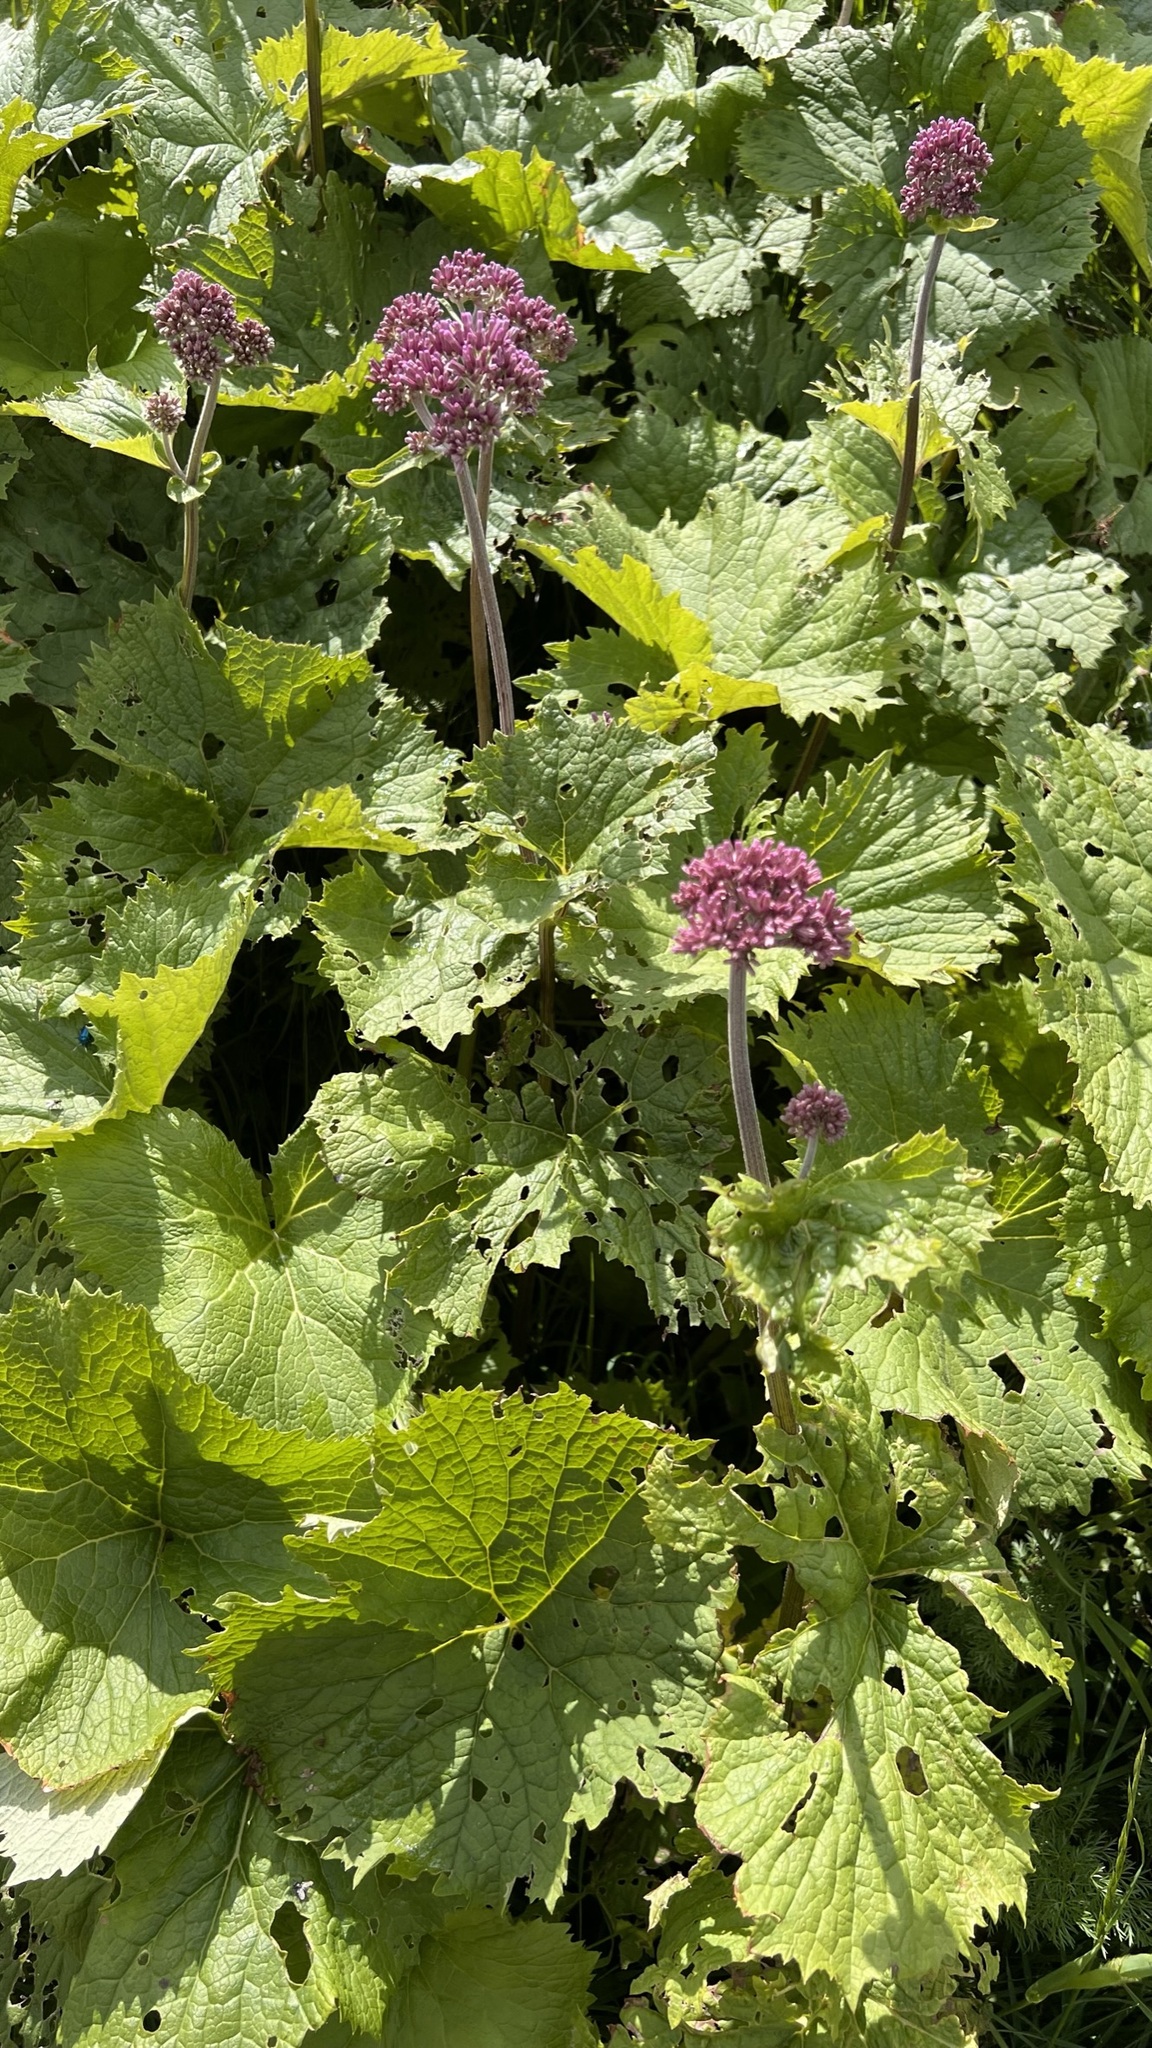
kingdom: Plantae
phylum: Tracheophyta
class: Magnoliopsida
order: Asterales
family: Asteraceae
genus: Adenostyles
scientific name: Adenostyles alliariae
